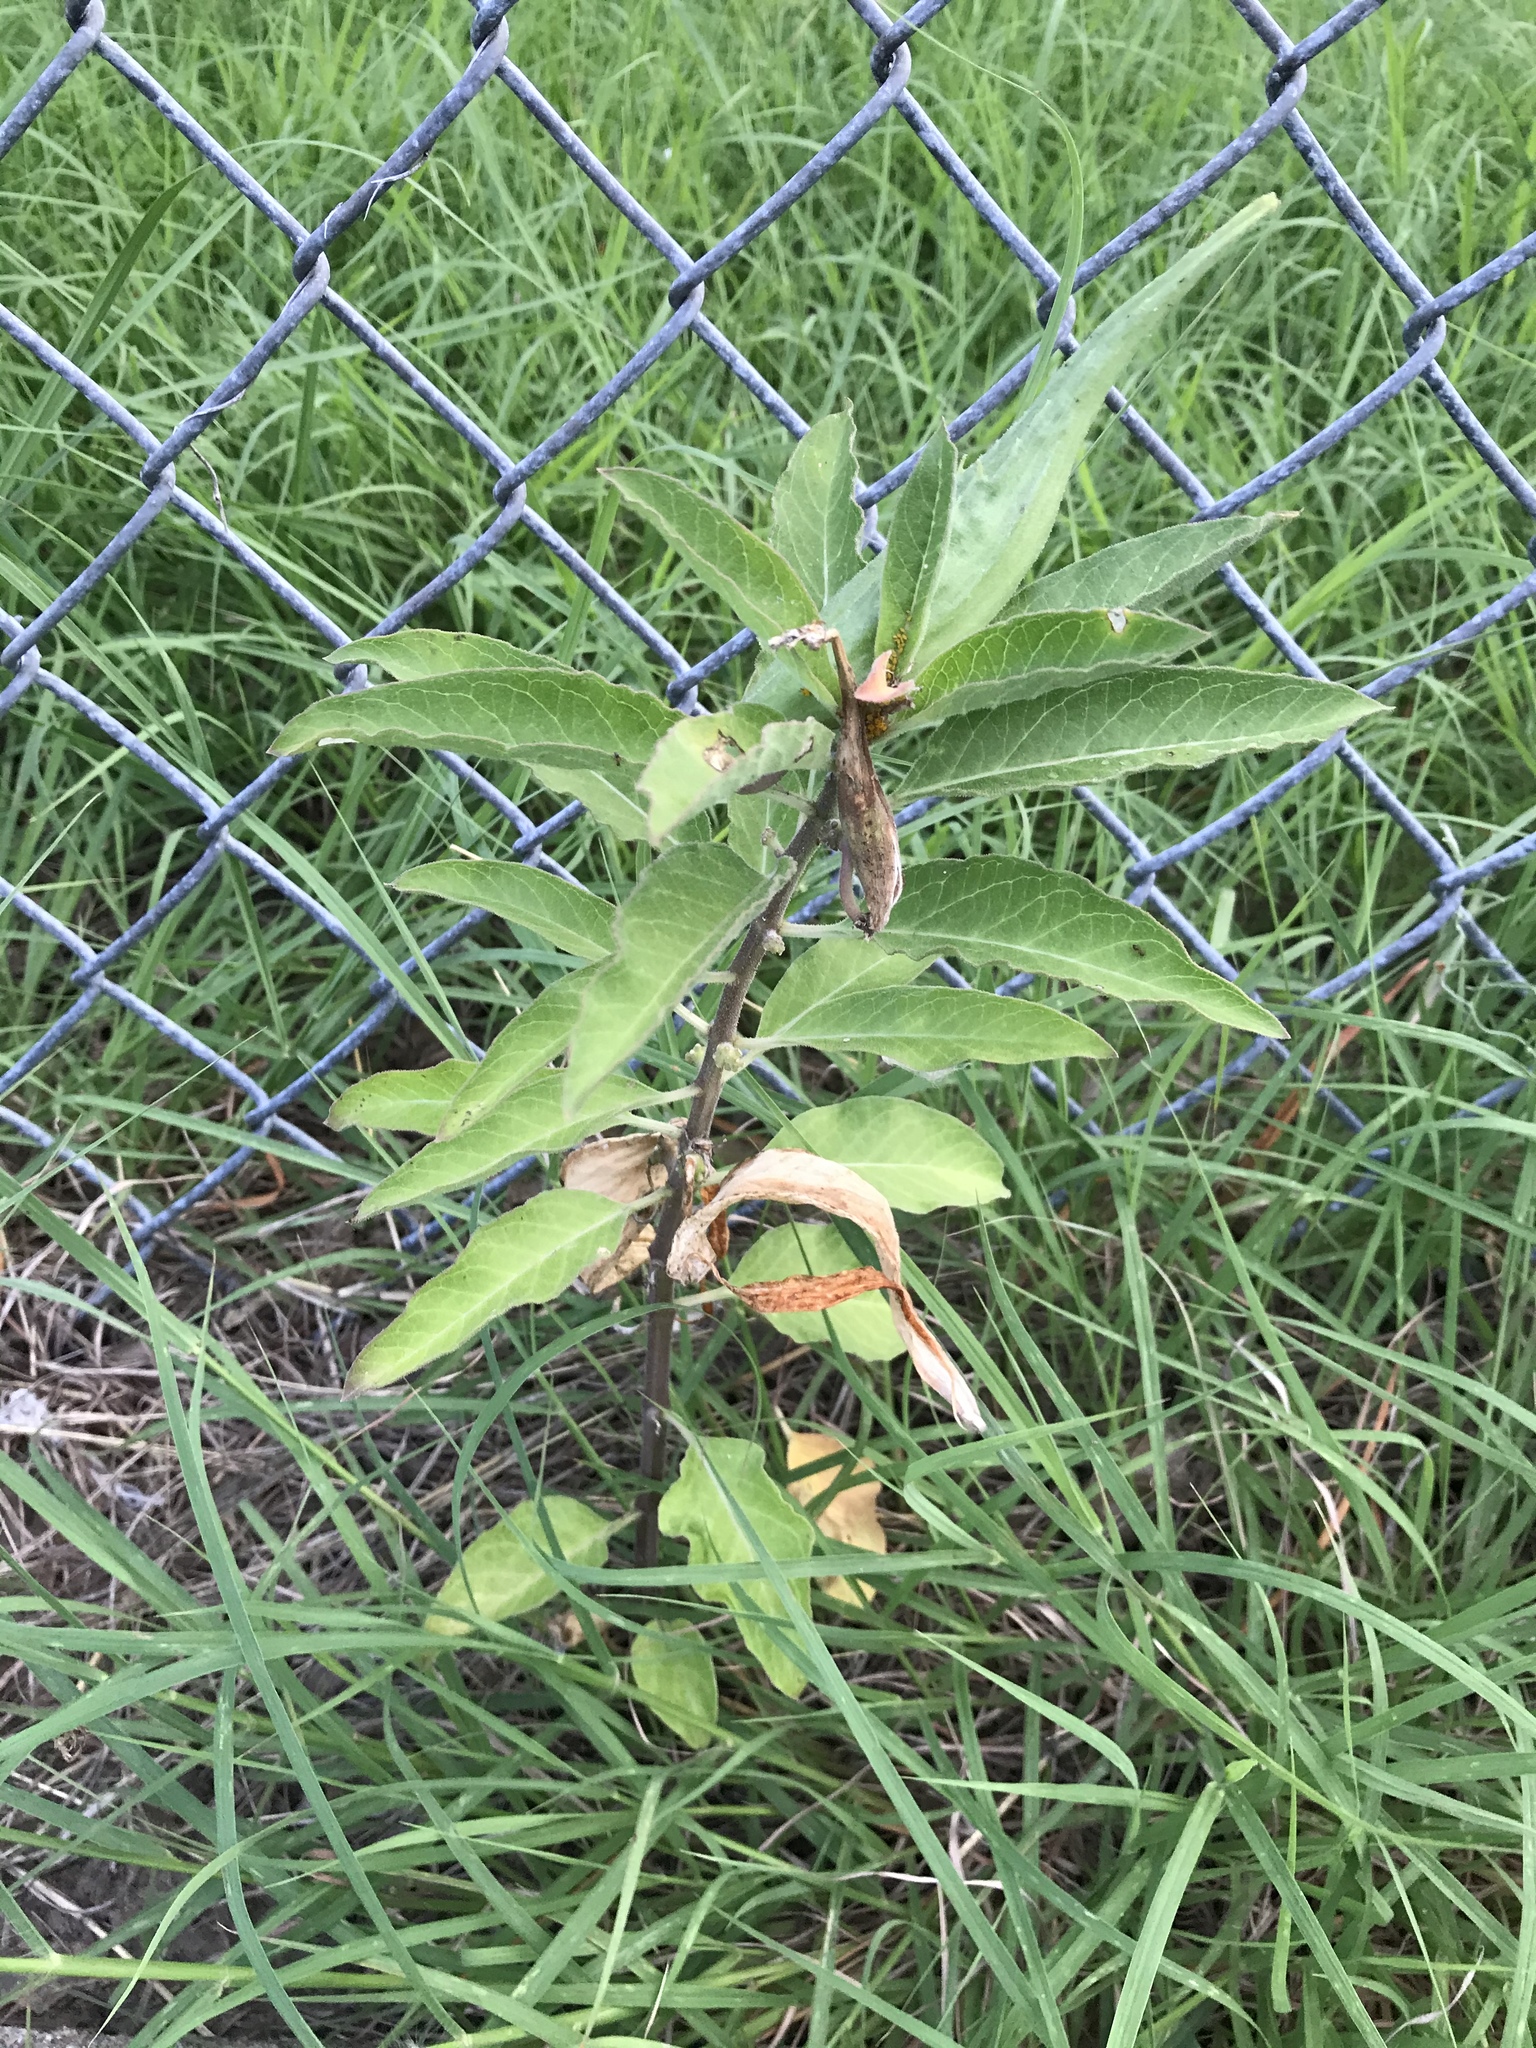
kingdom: Plantae
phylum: Tracheophyta
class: Magnoliopsida
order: Gentianales
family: Apocynaceae
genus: Asclepias
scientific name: Asclepias oenotheroides
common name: Zizotes milkweed
